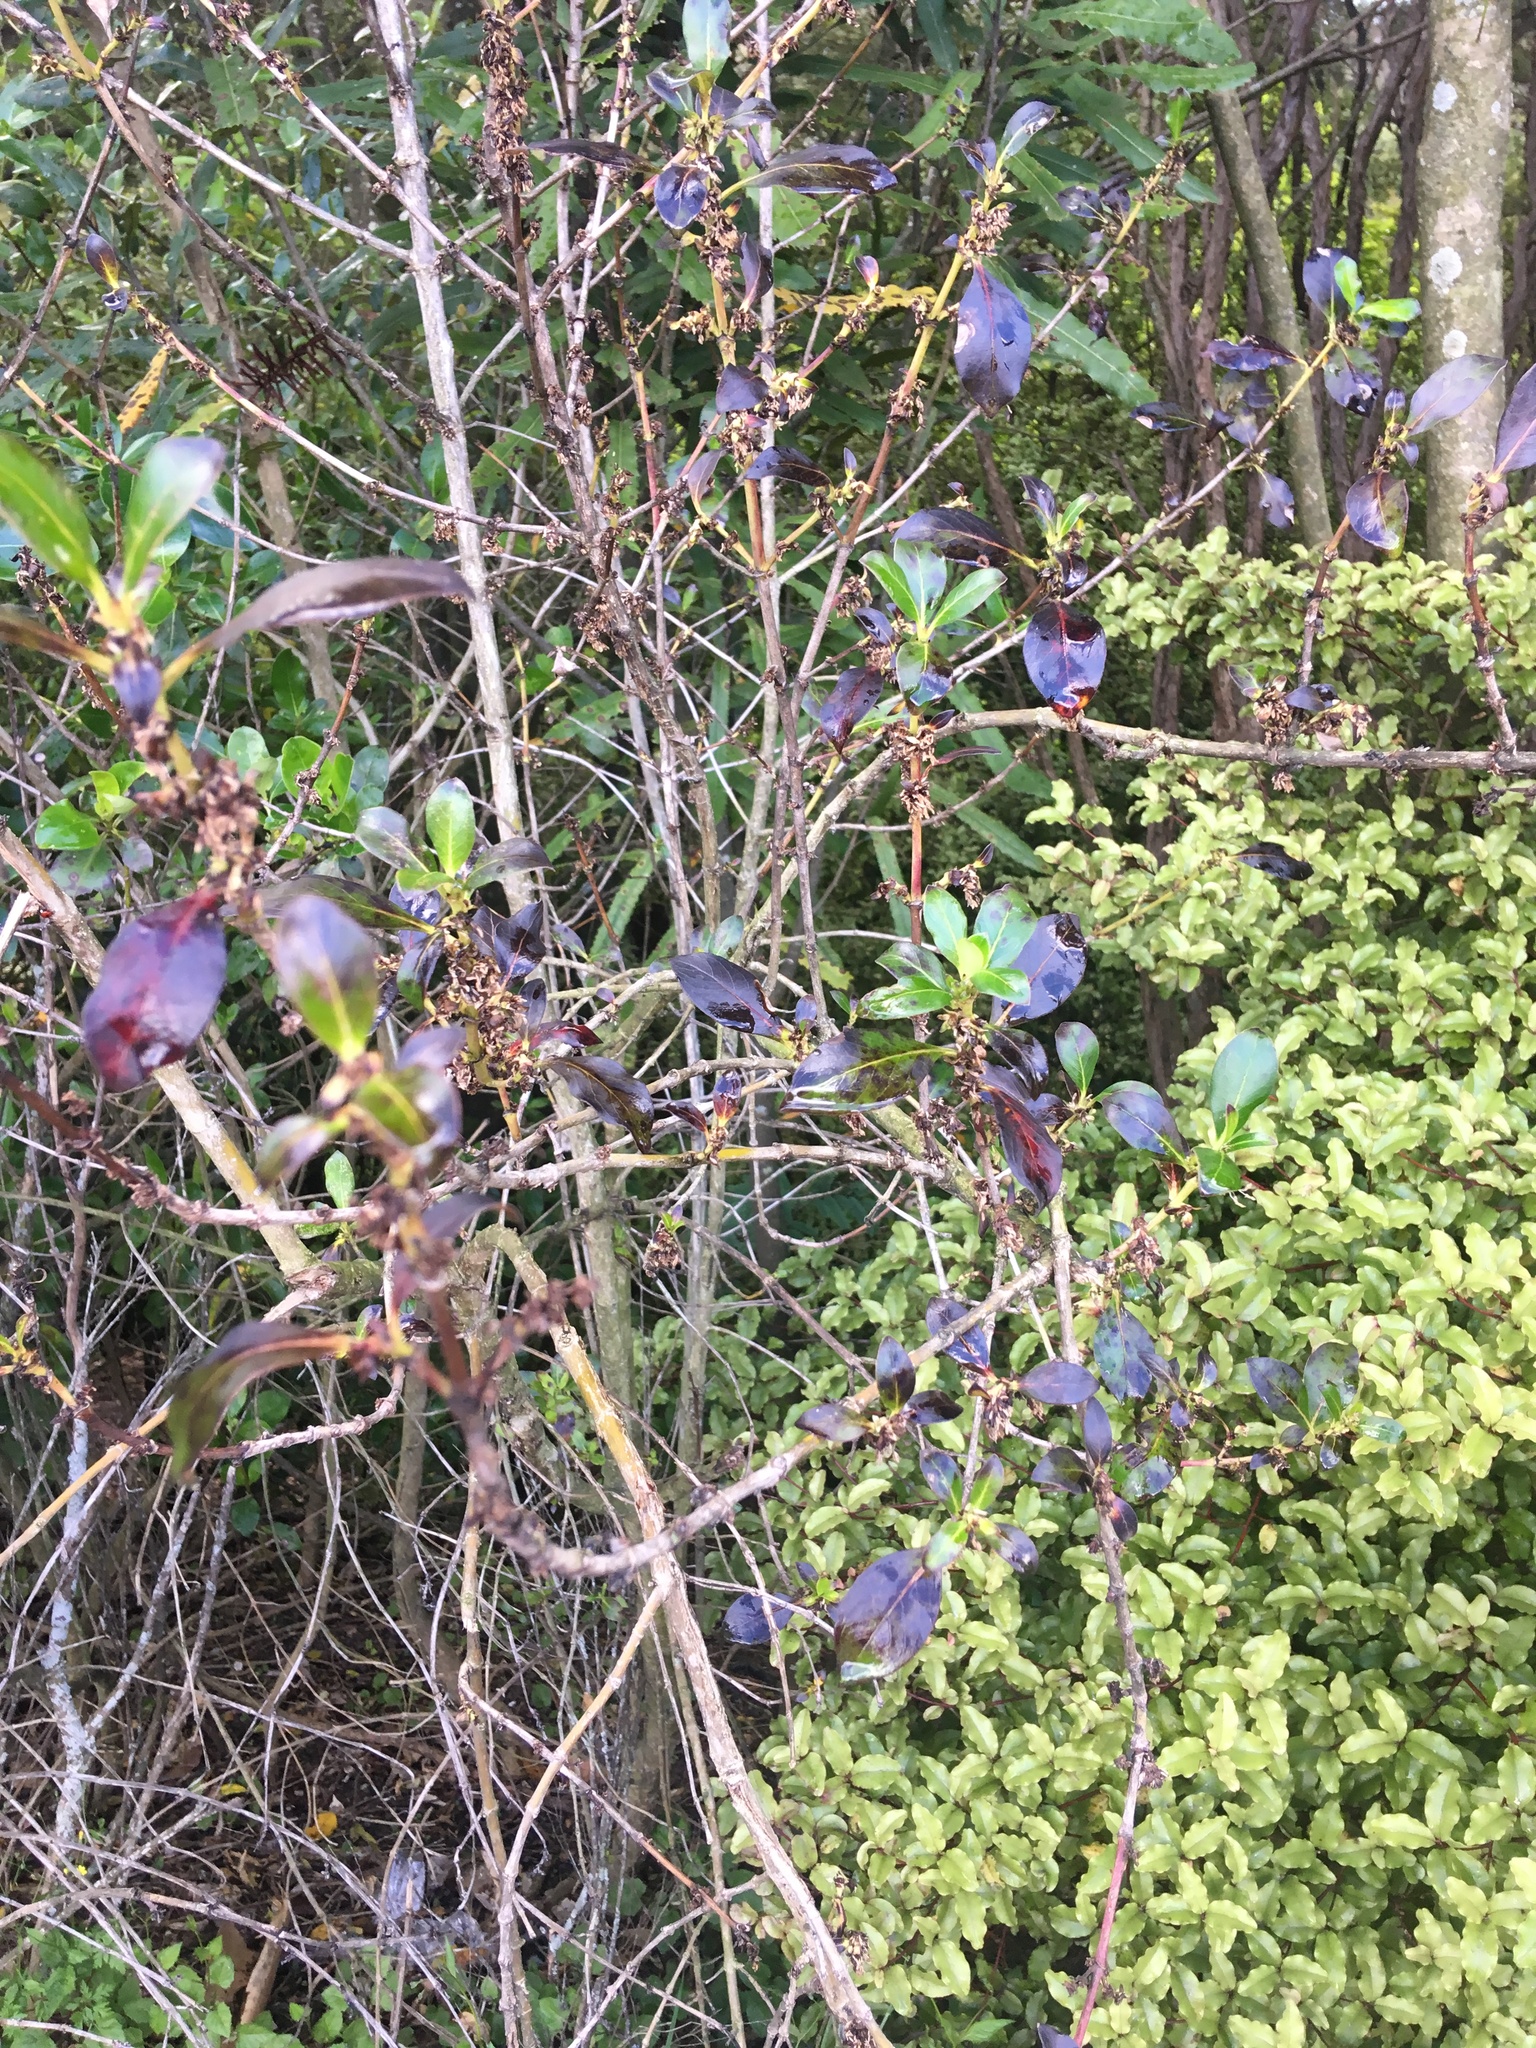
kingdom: Plantae
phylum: Tracheophyta
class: Magnoliopsida
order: Gentianales
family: Rubiaceae
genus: Coprosma
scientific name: Coprosma robusta
